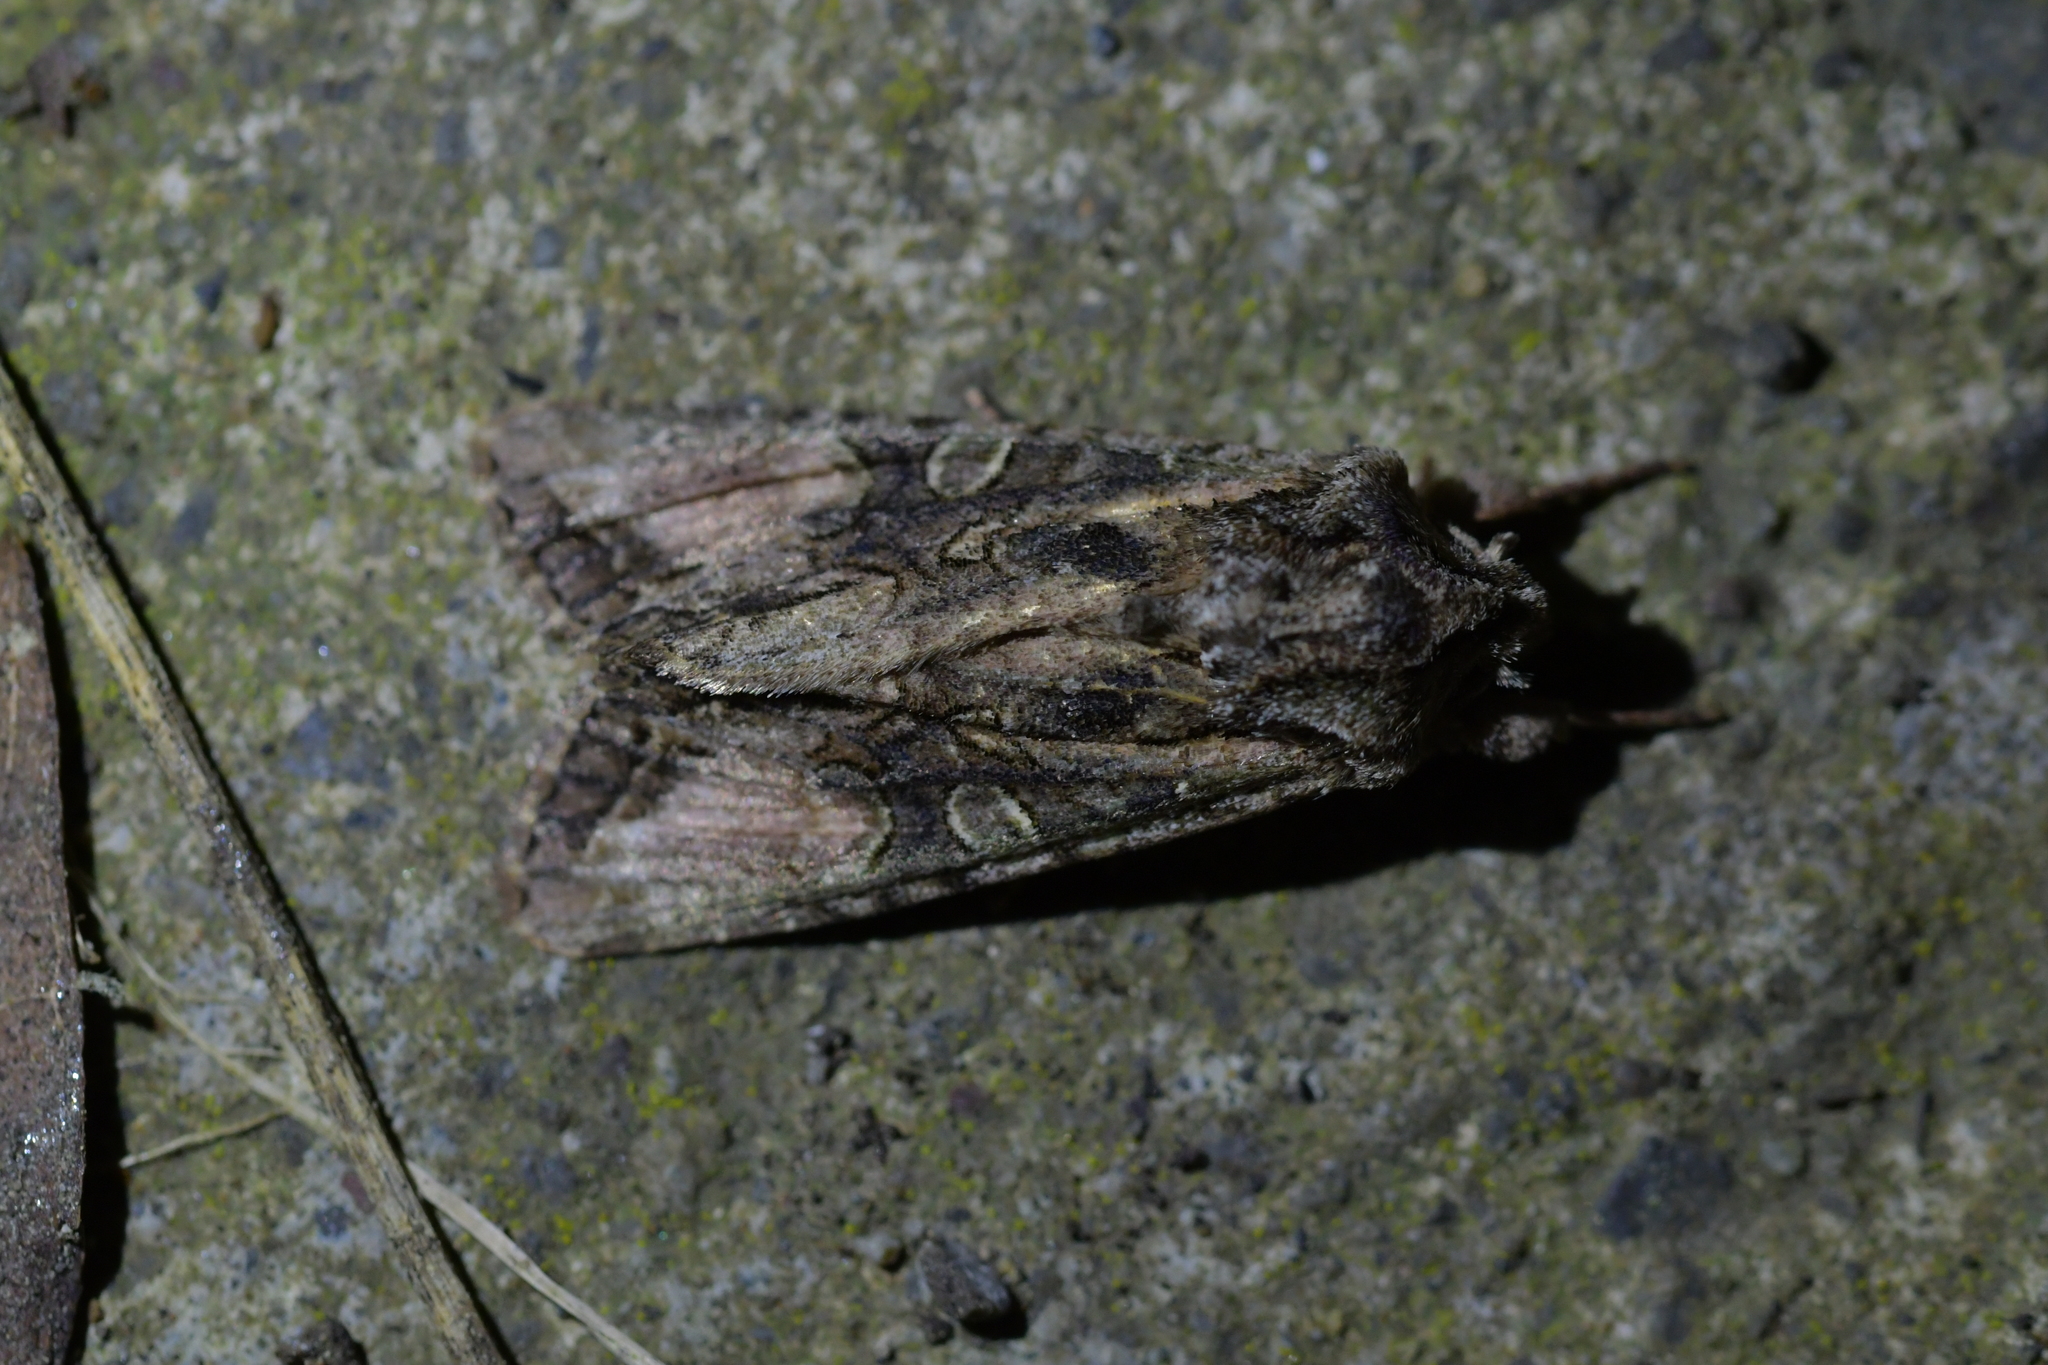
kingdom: Animalia
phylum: Arthropoda
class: Insecta
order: Lepidoptera
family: Noctuidae
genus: Ichneutica
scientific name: Ichneutica mutans
